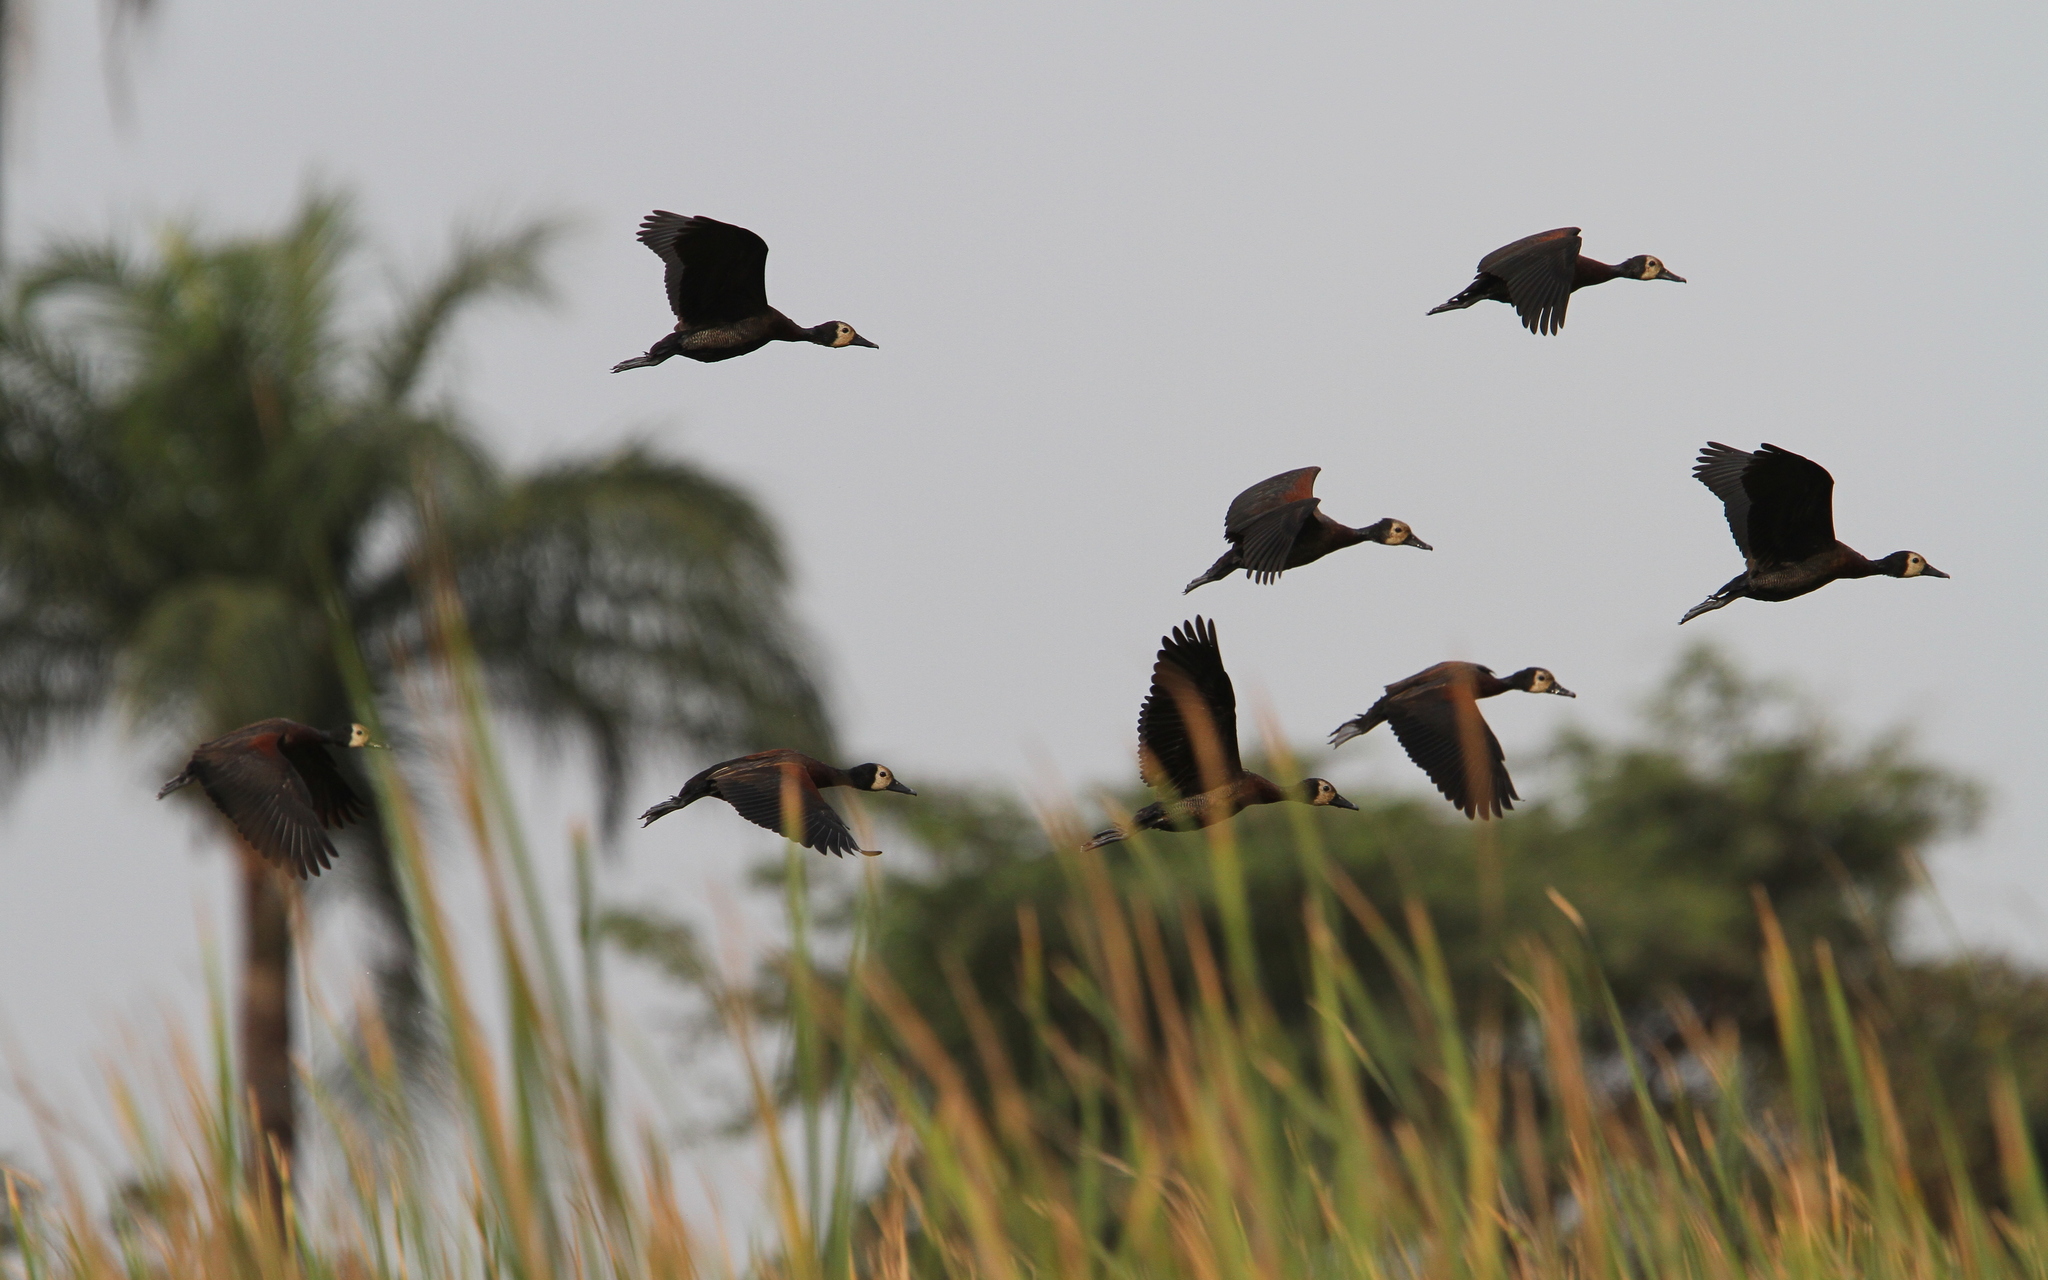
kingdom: Animalia
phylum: Chordata
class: Aves
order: Anseriformes
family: Anatidae
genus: Dendrocygna
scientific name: Dendrocygna viduata
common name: White-faced whistling duck
